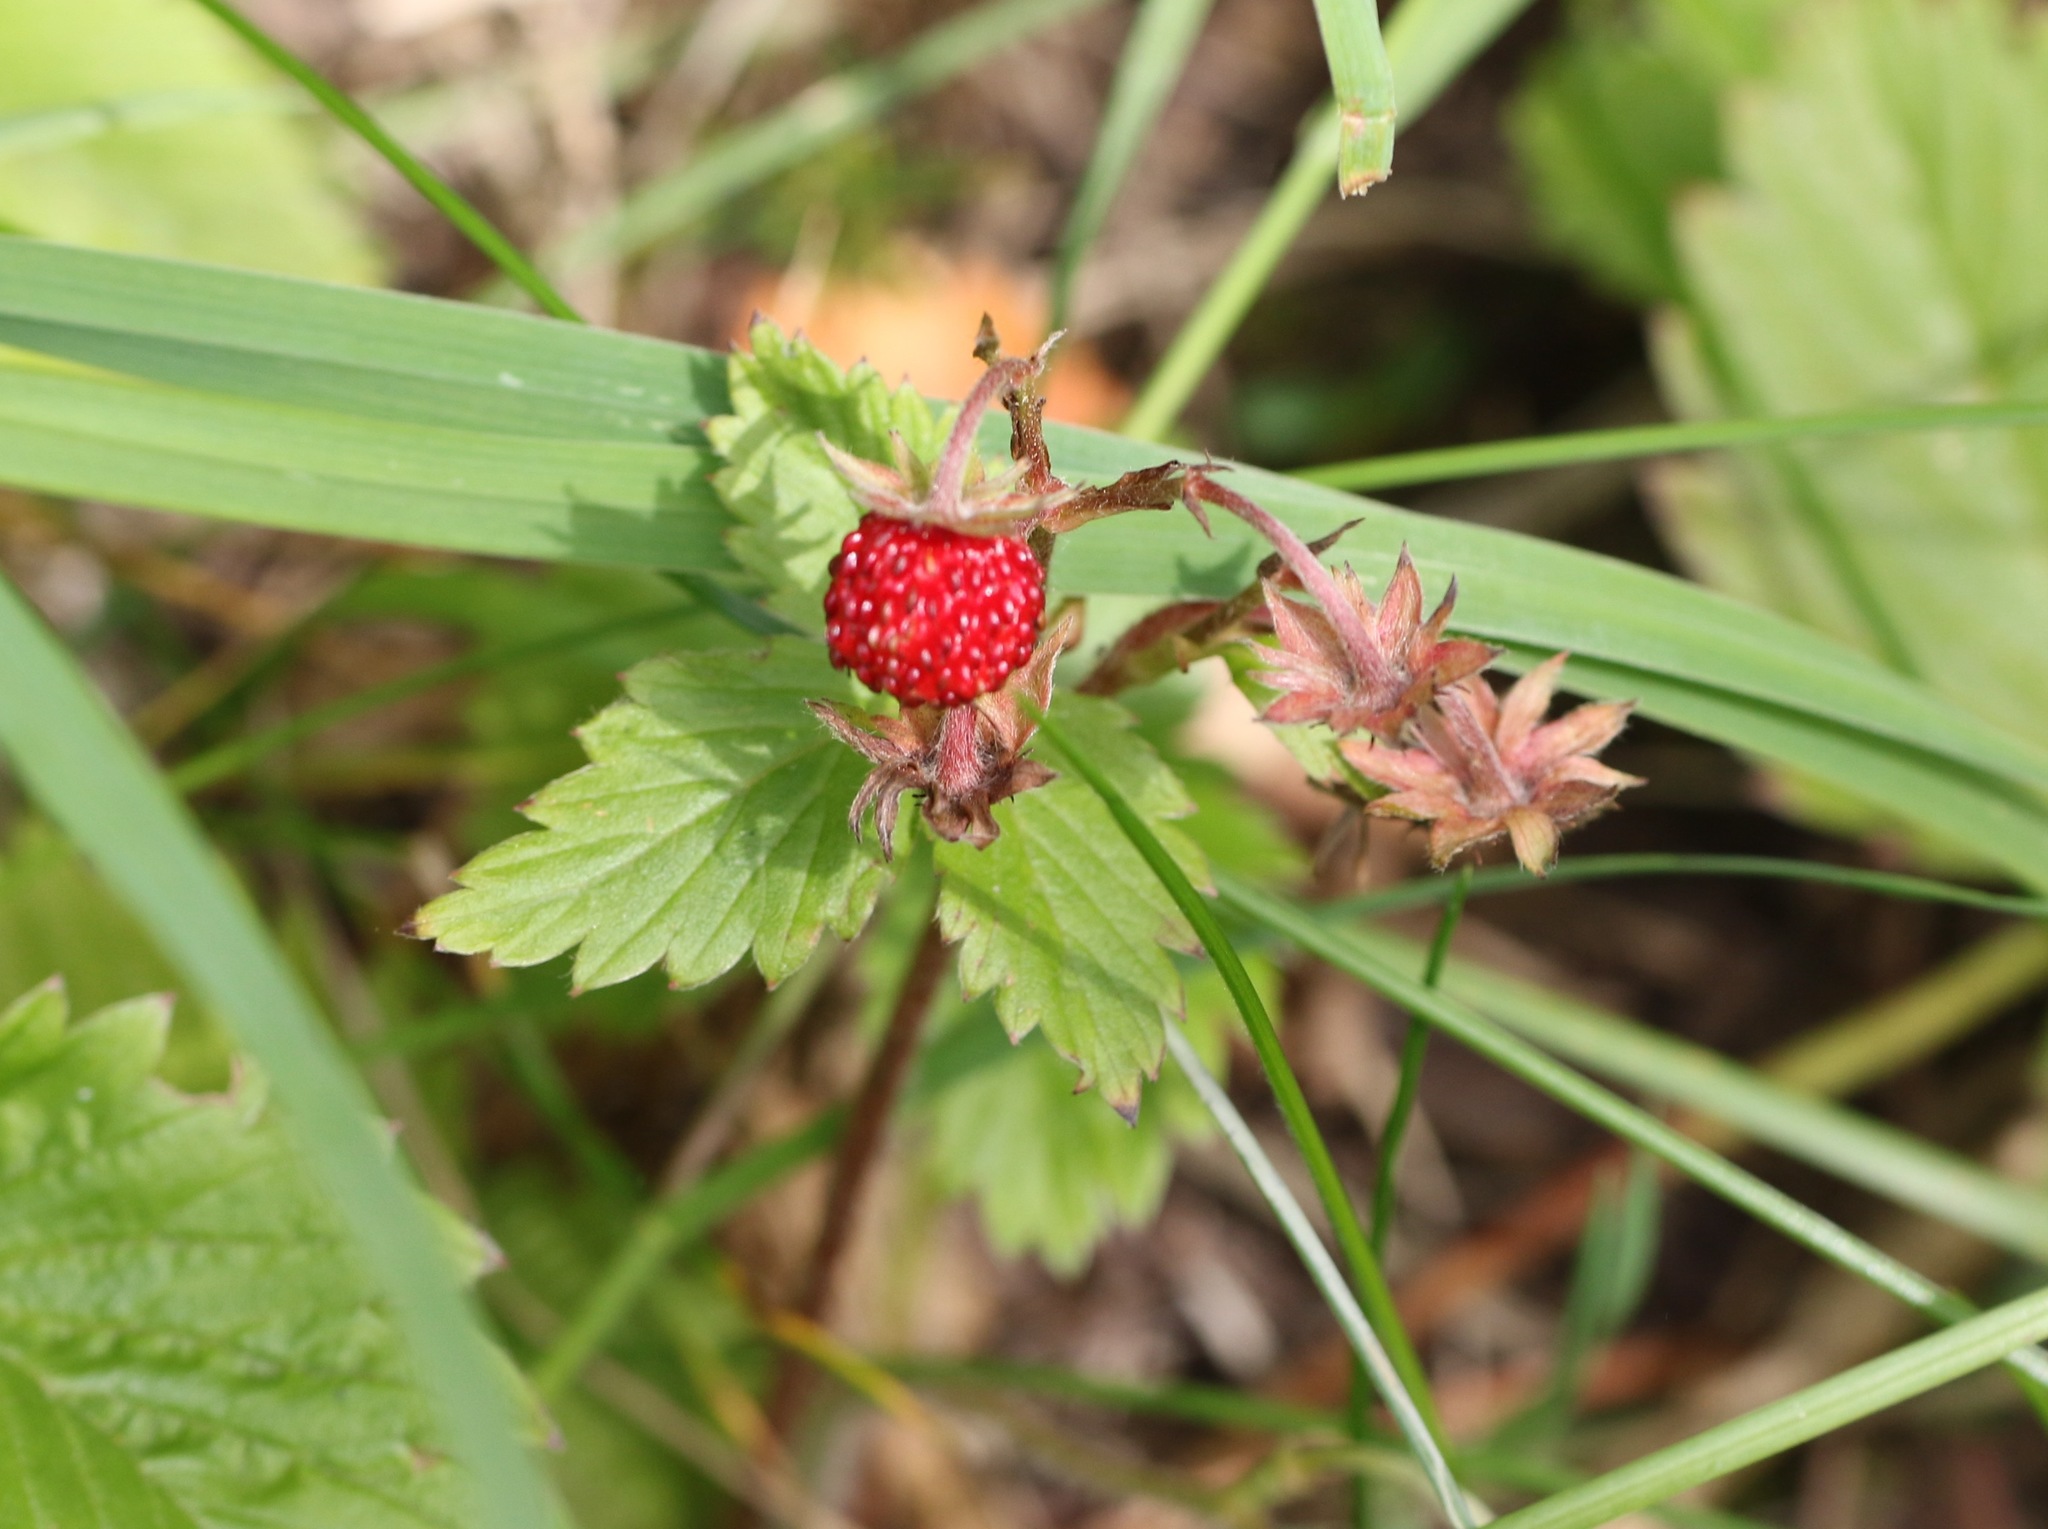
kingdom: Plantae
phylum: Tracheophyta
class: Magnoliopsida
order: Rosales
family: Rosaceae
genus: Fragaria
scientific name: Fragaria vesca
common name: Wild strawberry
